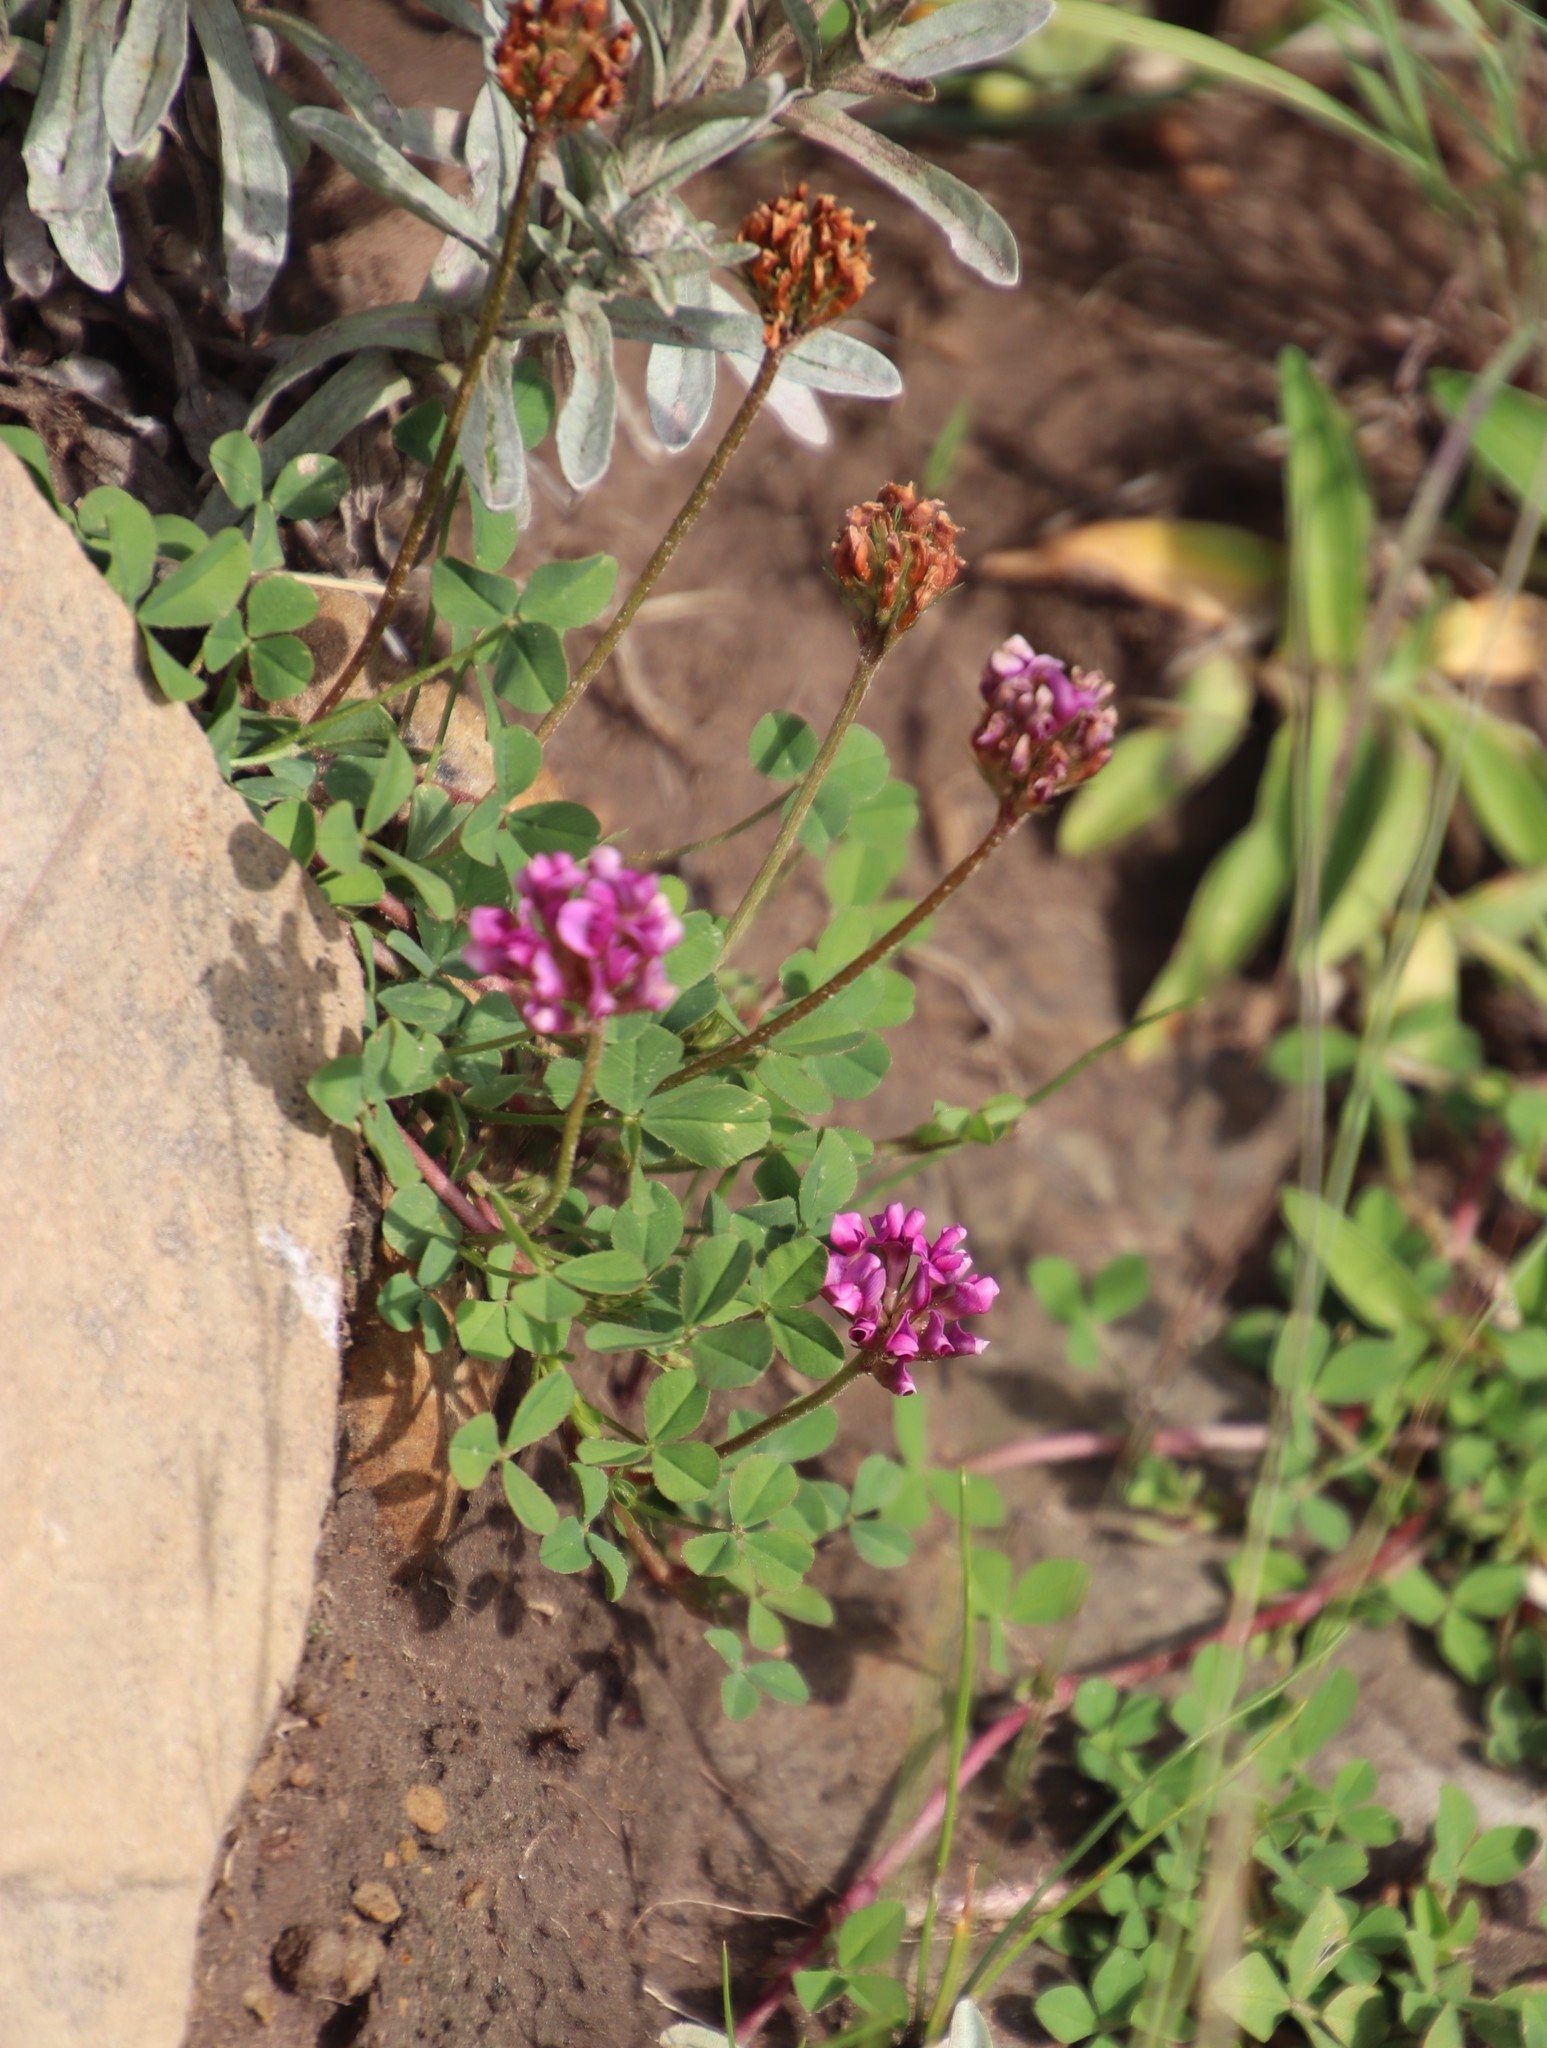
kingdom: Plantae
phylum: Tracheophyta
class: Magnoliopsida
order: Fabales
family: Fabaceae
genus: Trifolium
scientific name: Trifolium burchellianum
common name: Burchell's clover
